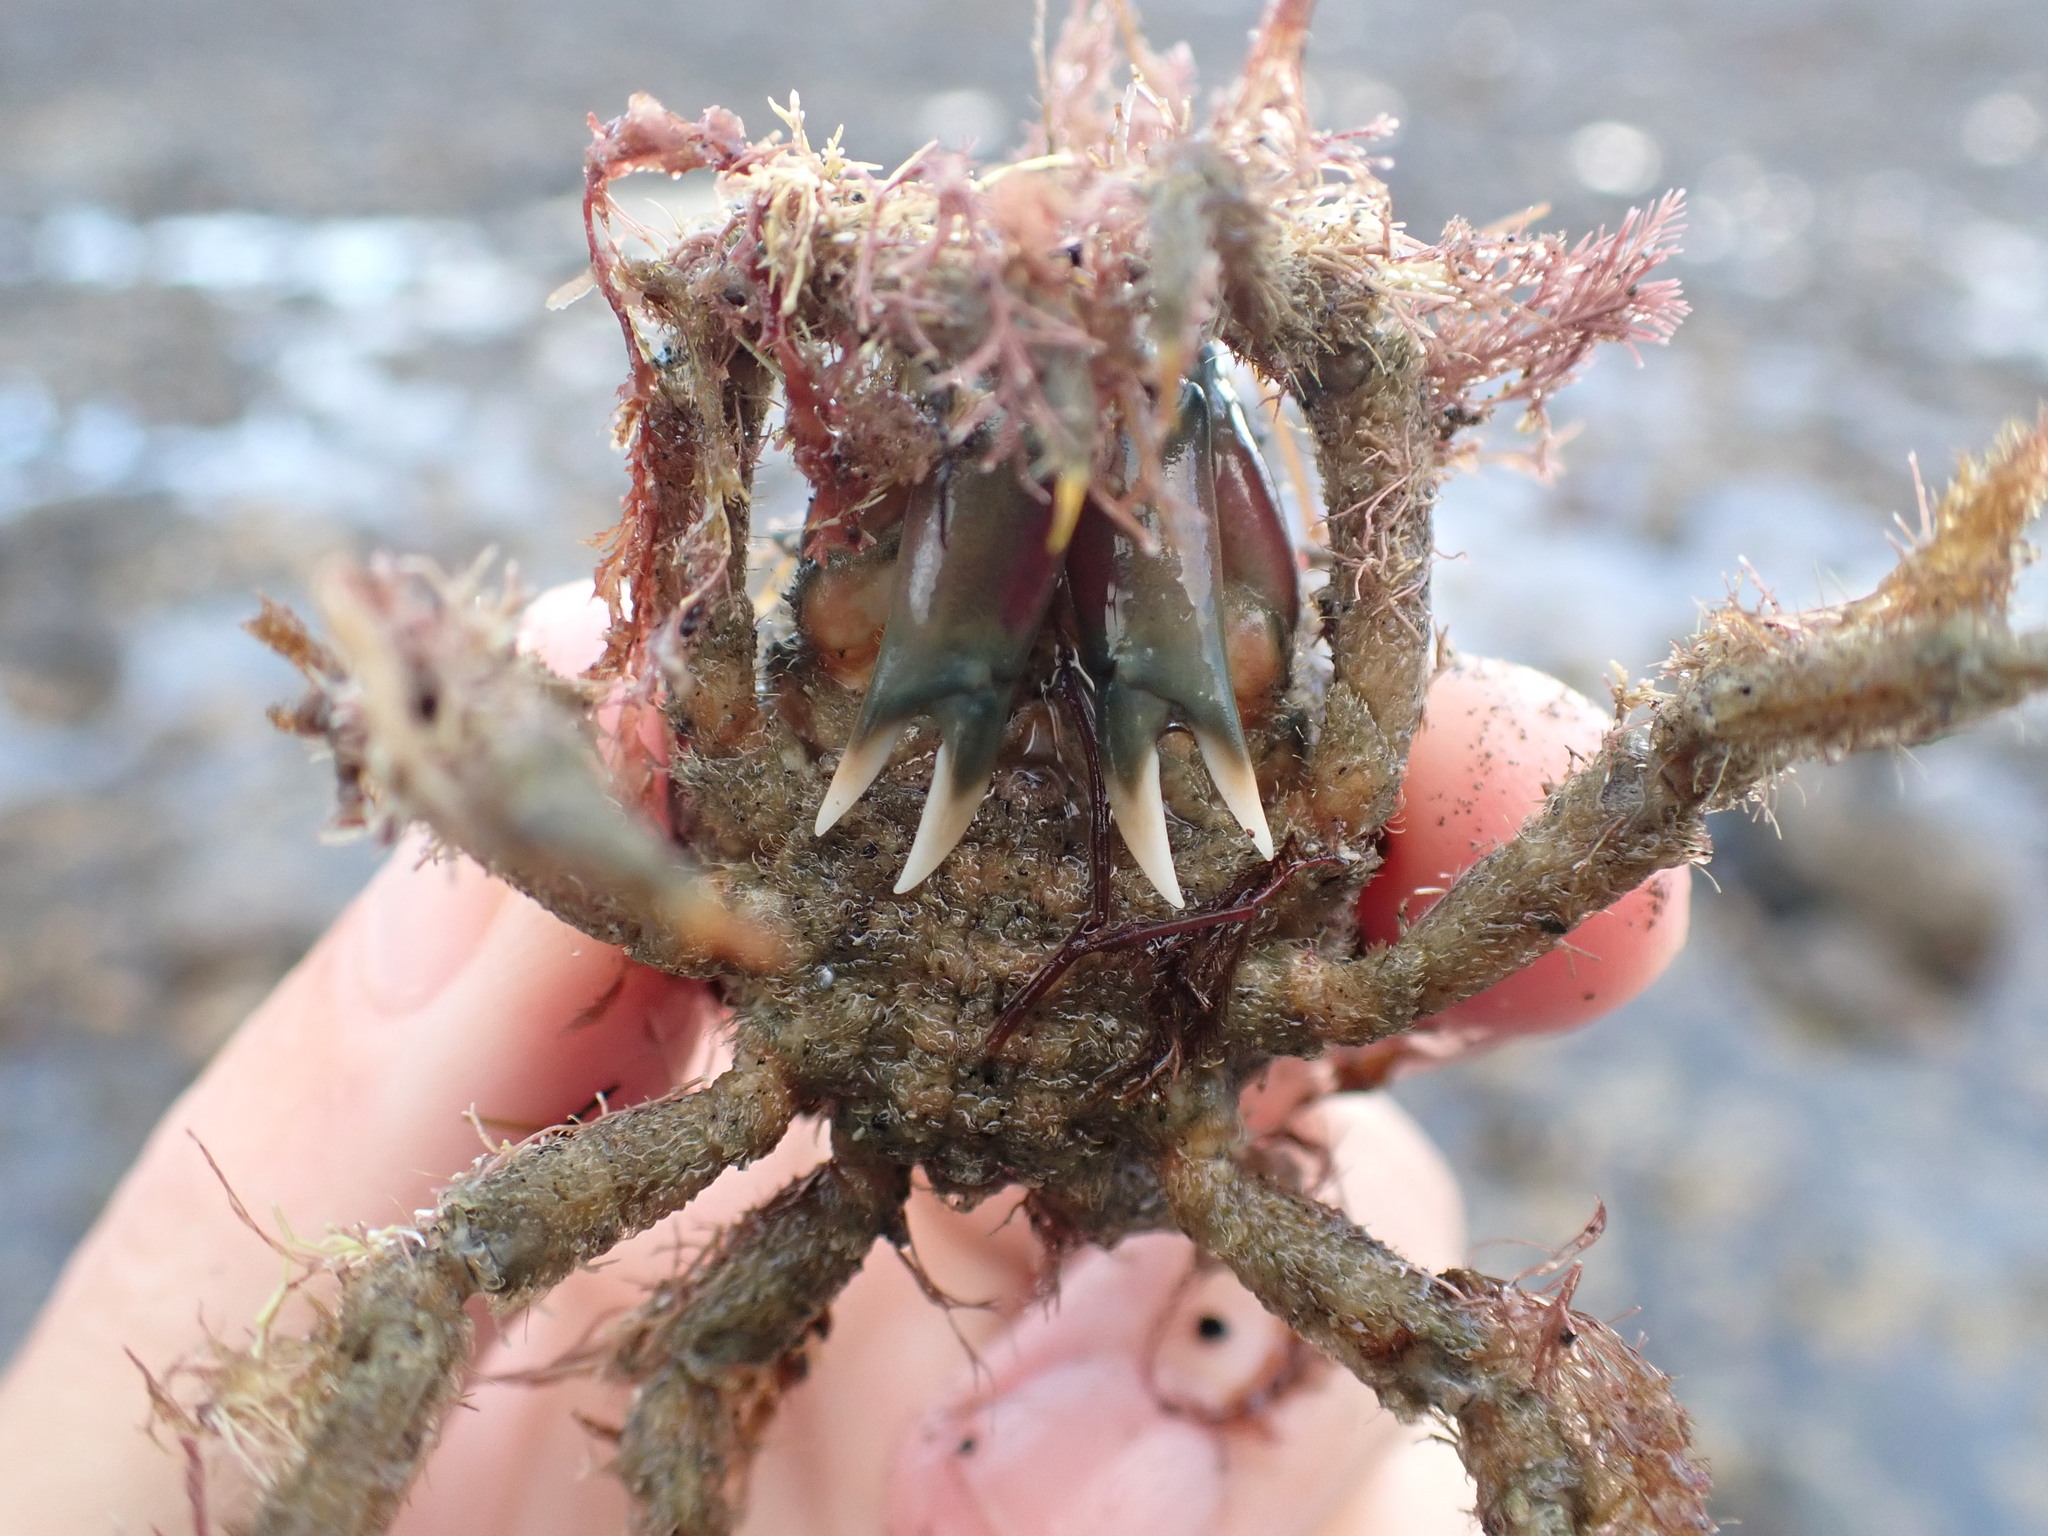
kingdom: Animalia
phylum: Arthropoda
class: Malacostraca
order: Decapoda
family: Majidae
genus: Notomithrax
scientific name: Notomithrax peronii
